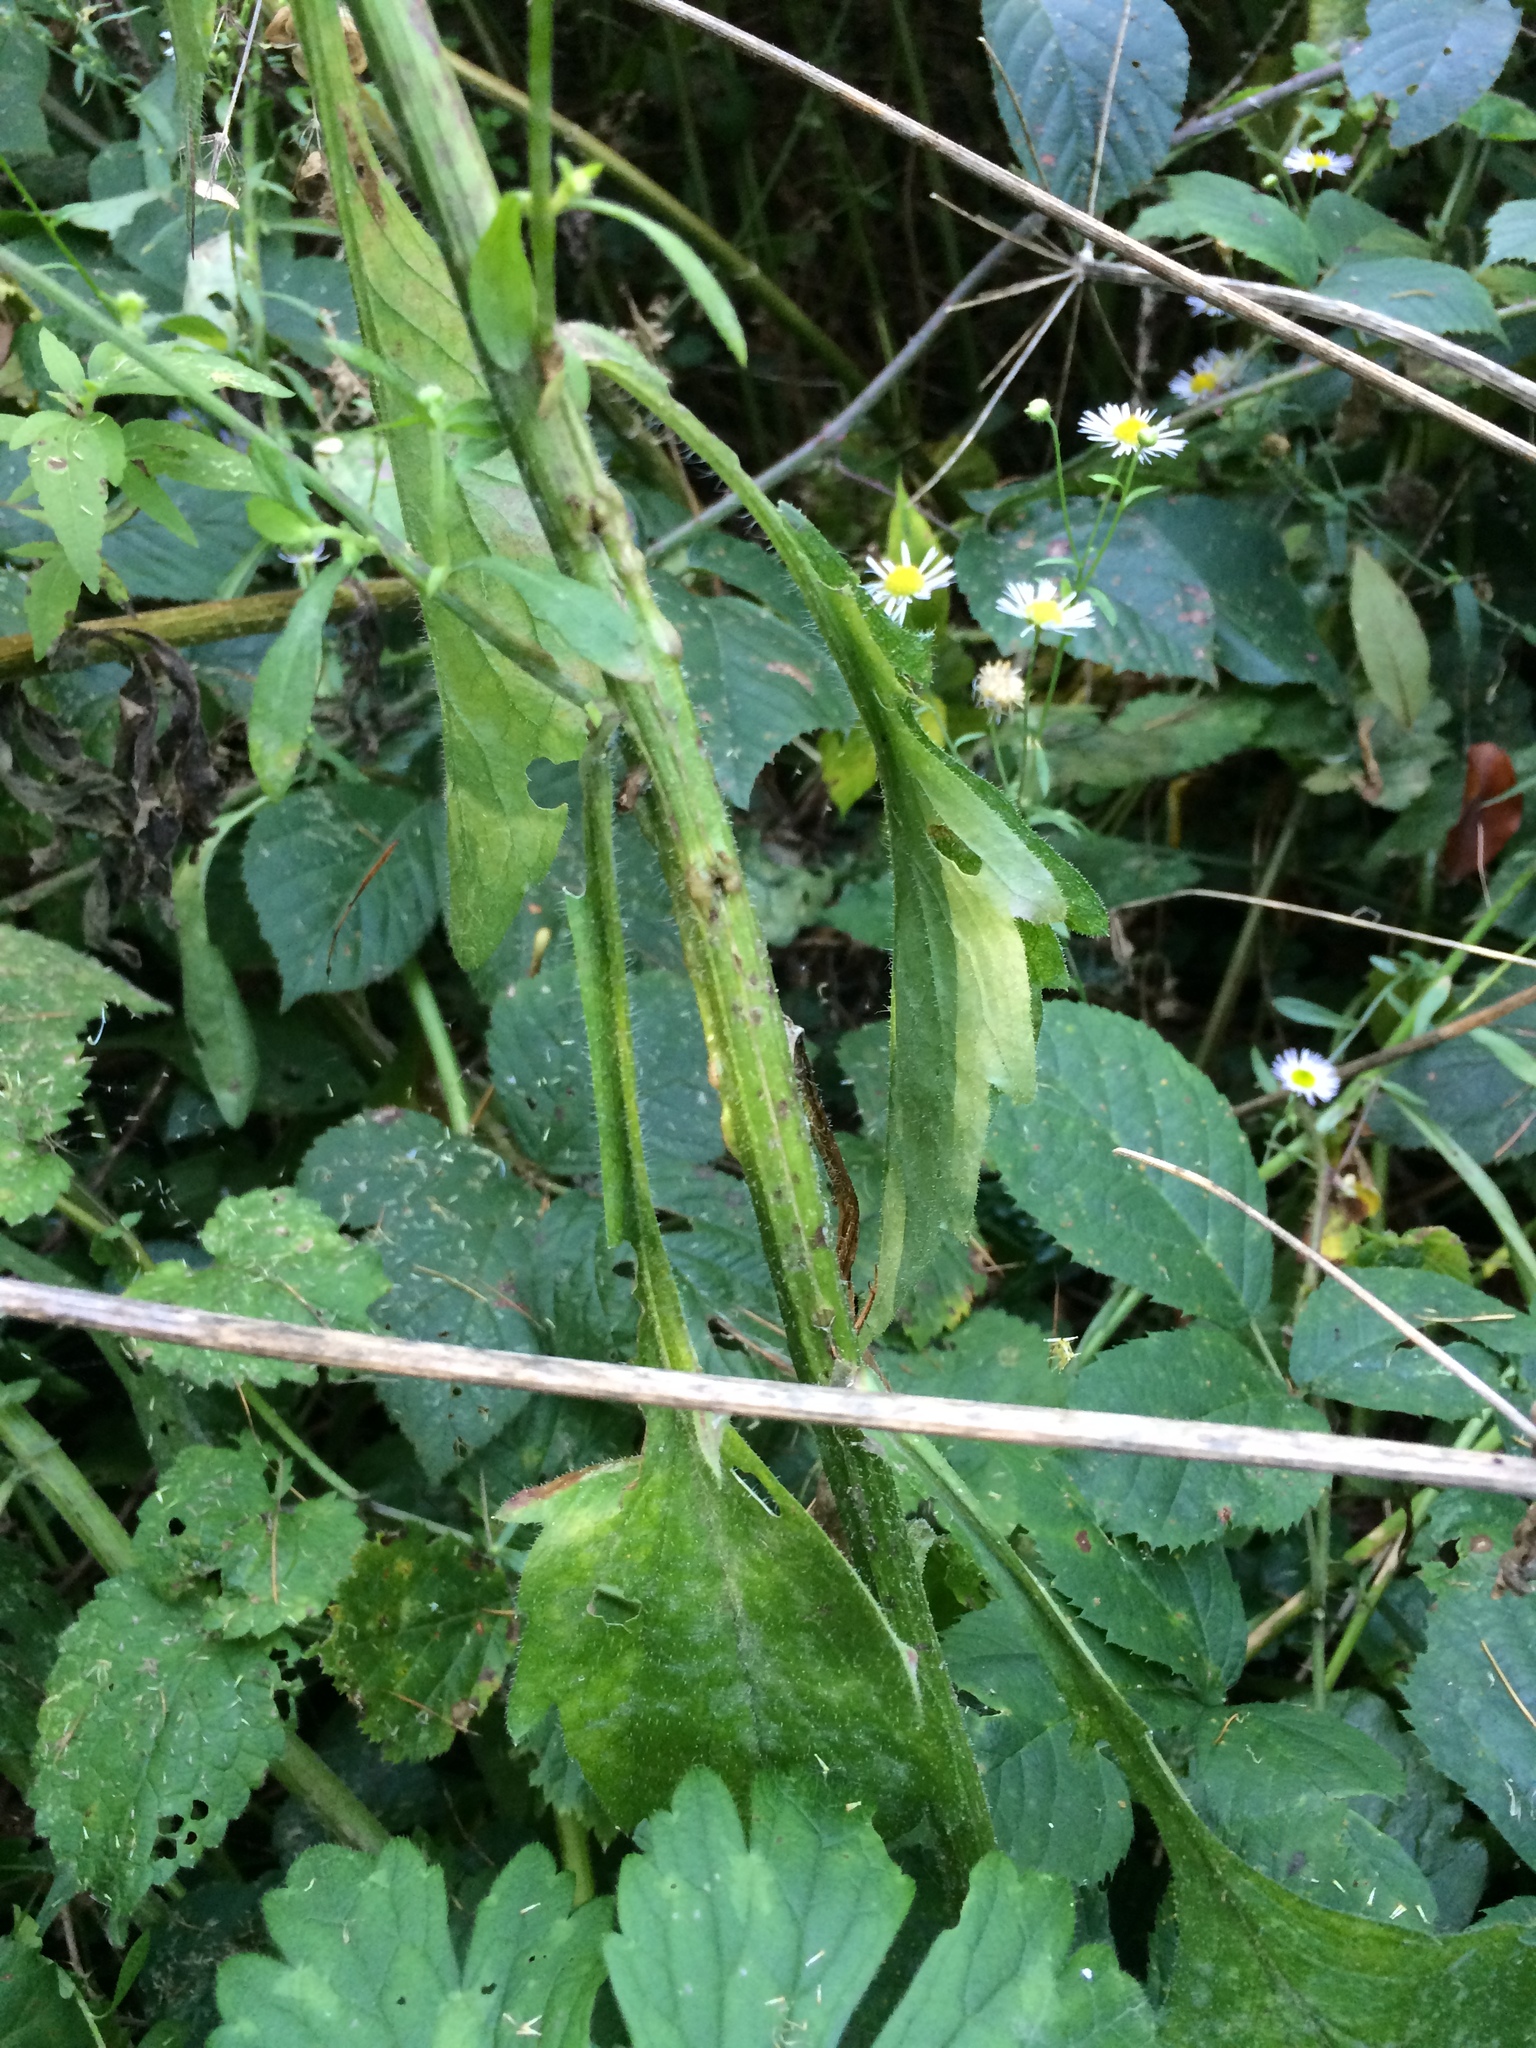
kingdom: Plantae
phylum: Tracheophyta
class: Magnoliopsida
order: Asterales
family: Asteraceae
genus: Erigeron
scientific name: Erigeron annuus
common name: Tall fleabane
